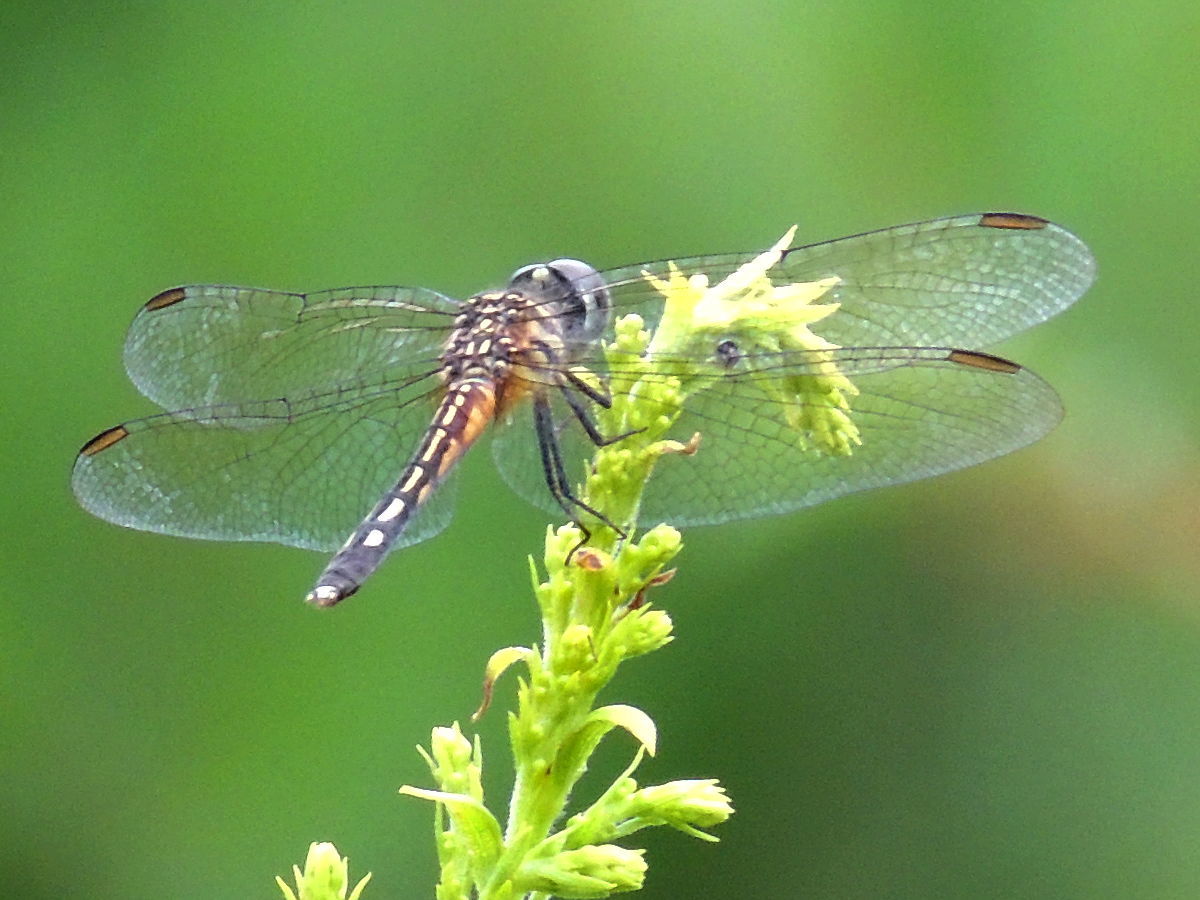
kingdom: Animalia
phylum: Arthropoda
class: Insecta
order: Odonata
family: Libellulidae
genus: Pachydiplax
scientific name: Pachydiplax longipennis
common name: Blue dasher
